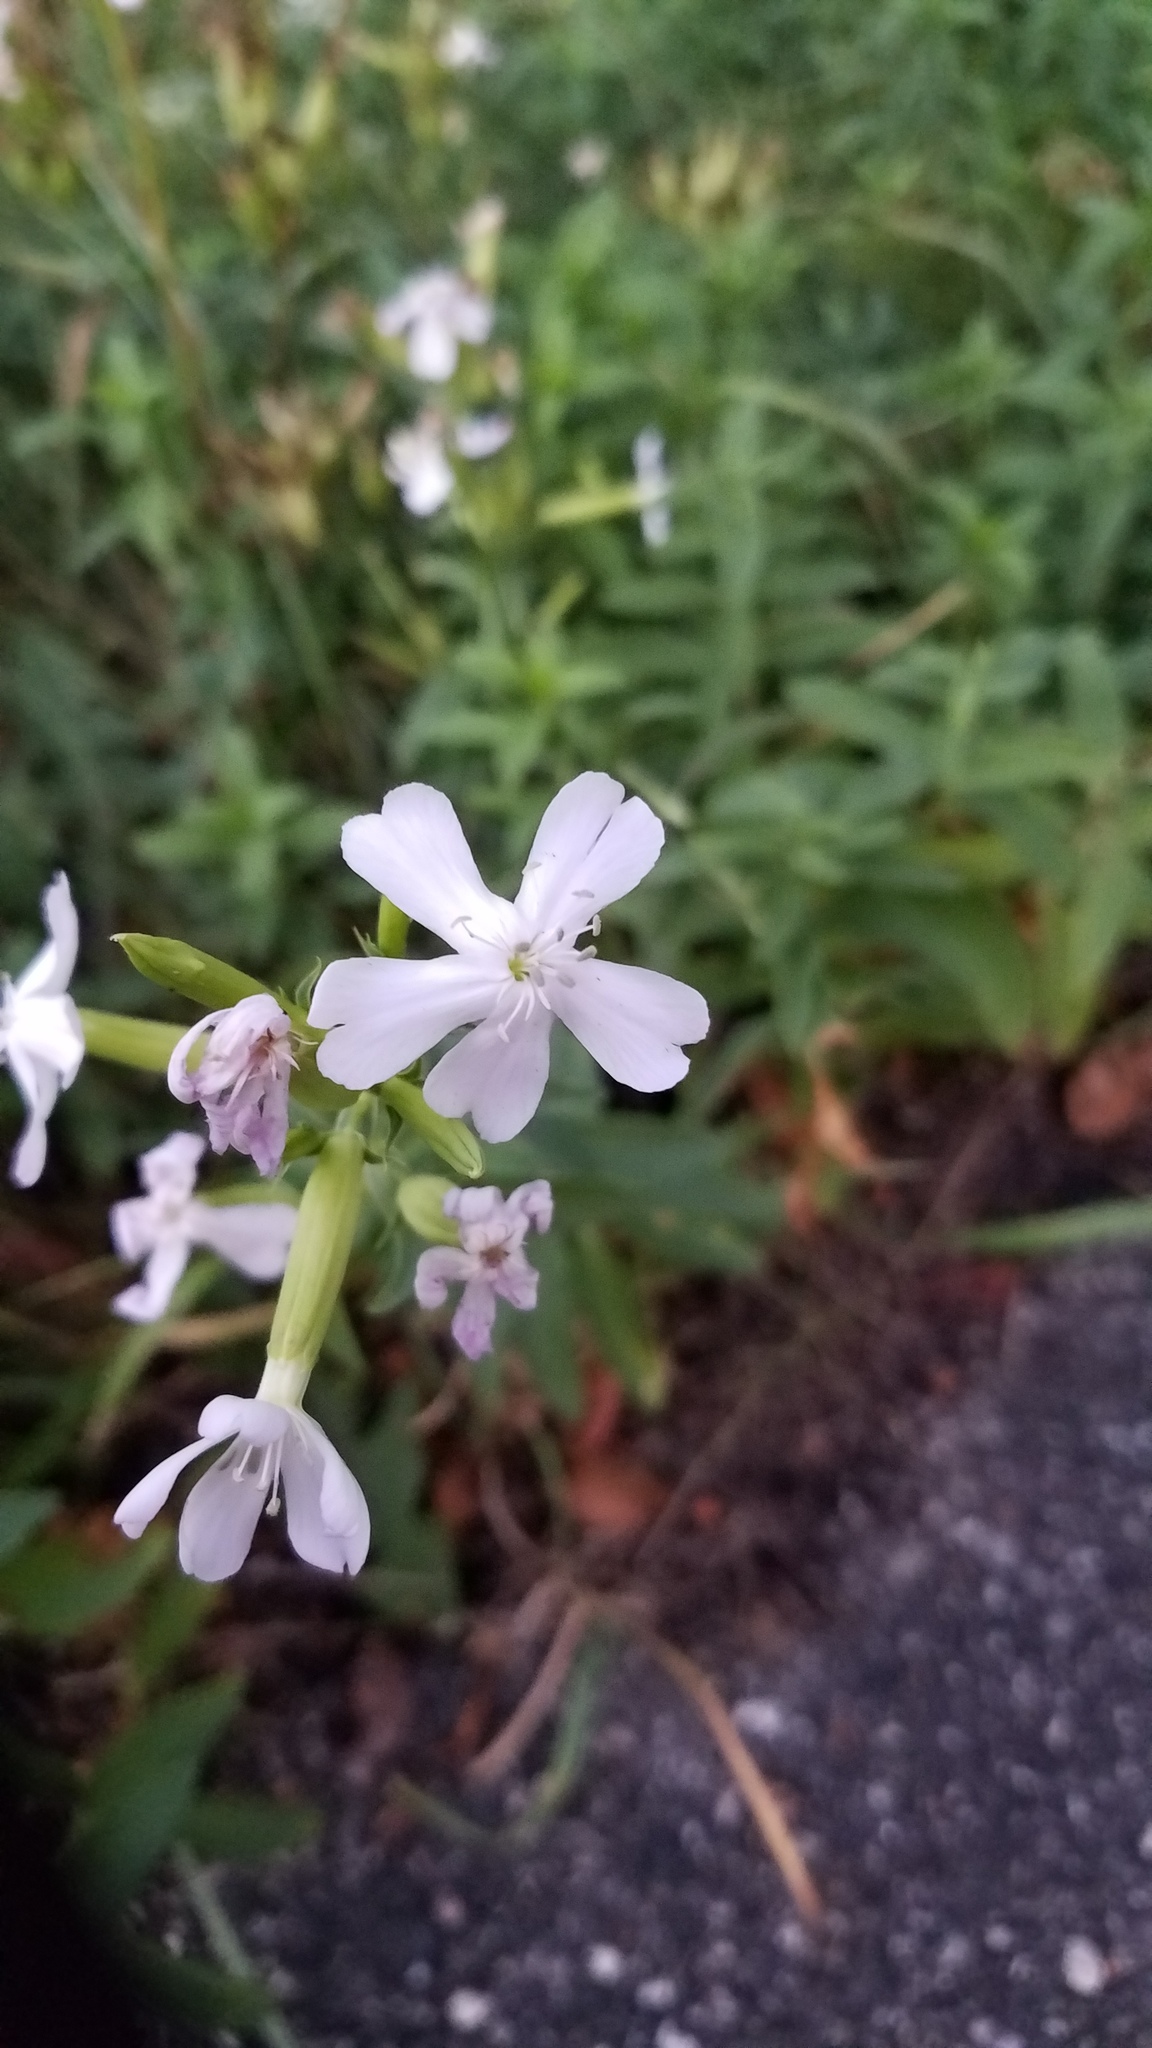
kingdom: Plantae
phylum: Tracheophyta
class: Magnoliopsida
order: Caryophyllales
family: Caryophyllaceae
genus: Saponaria
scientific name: Saponaria officinalis
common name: Soapwort
